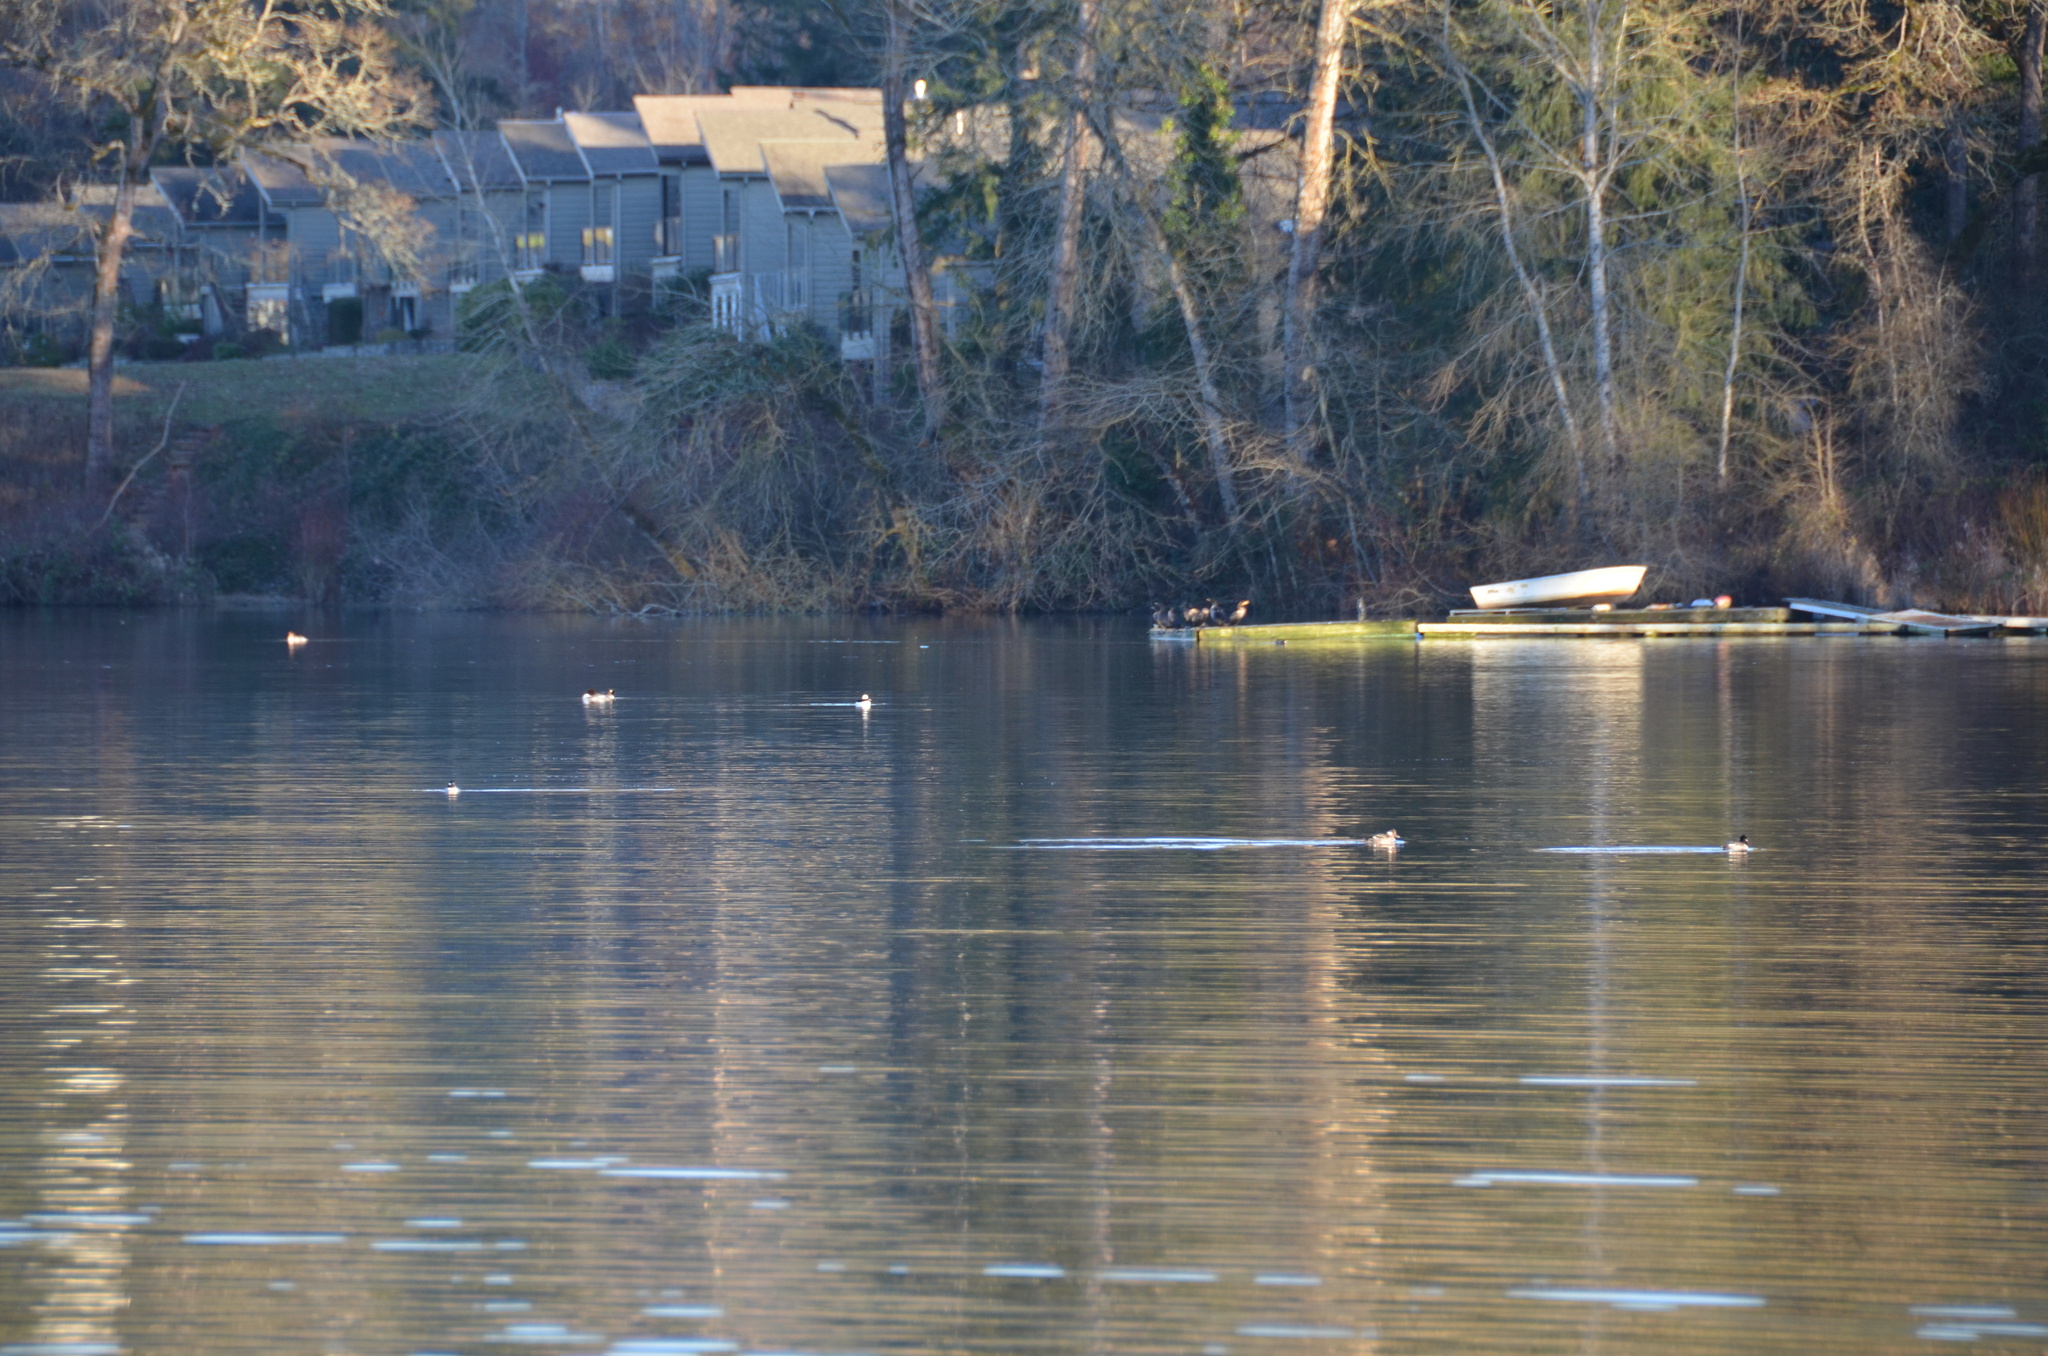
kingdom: Animalia
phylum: Chordata
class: Aves
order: Anseriformes
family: Anatidae
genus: Bucephala
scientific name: Bucephala albeola
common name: Bufflehead
